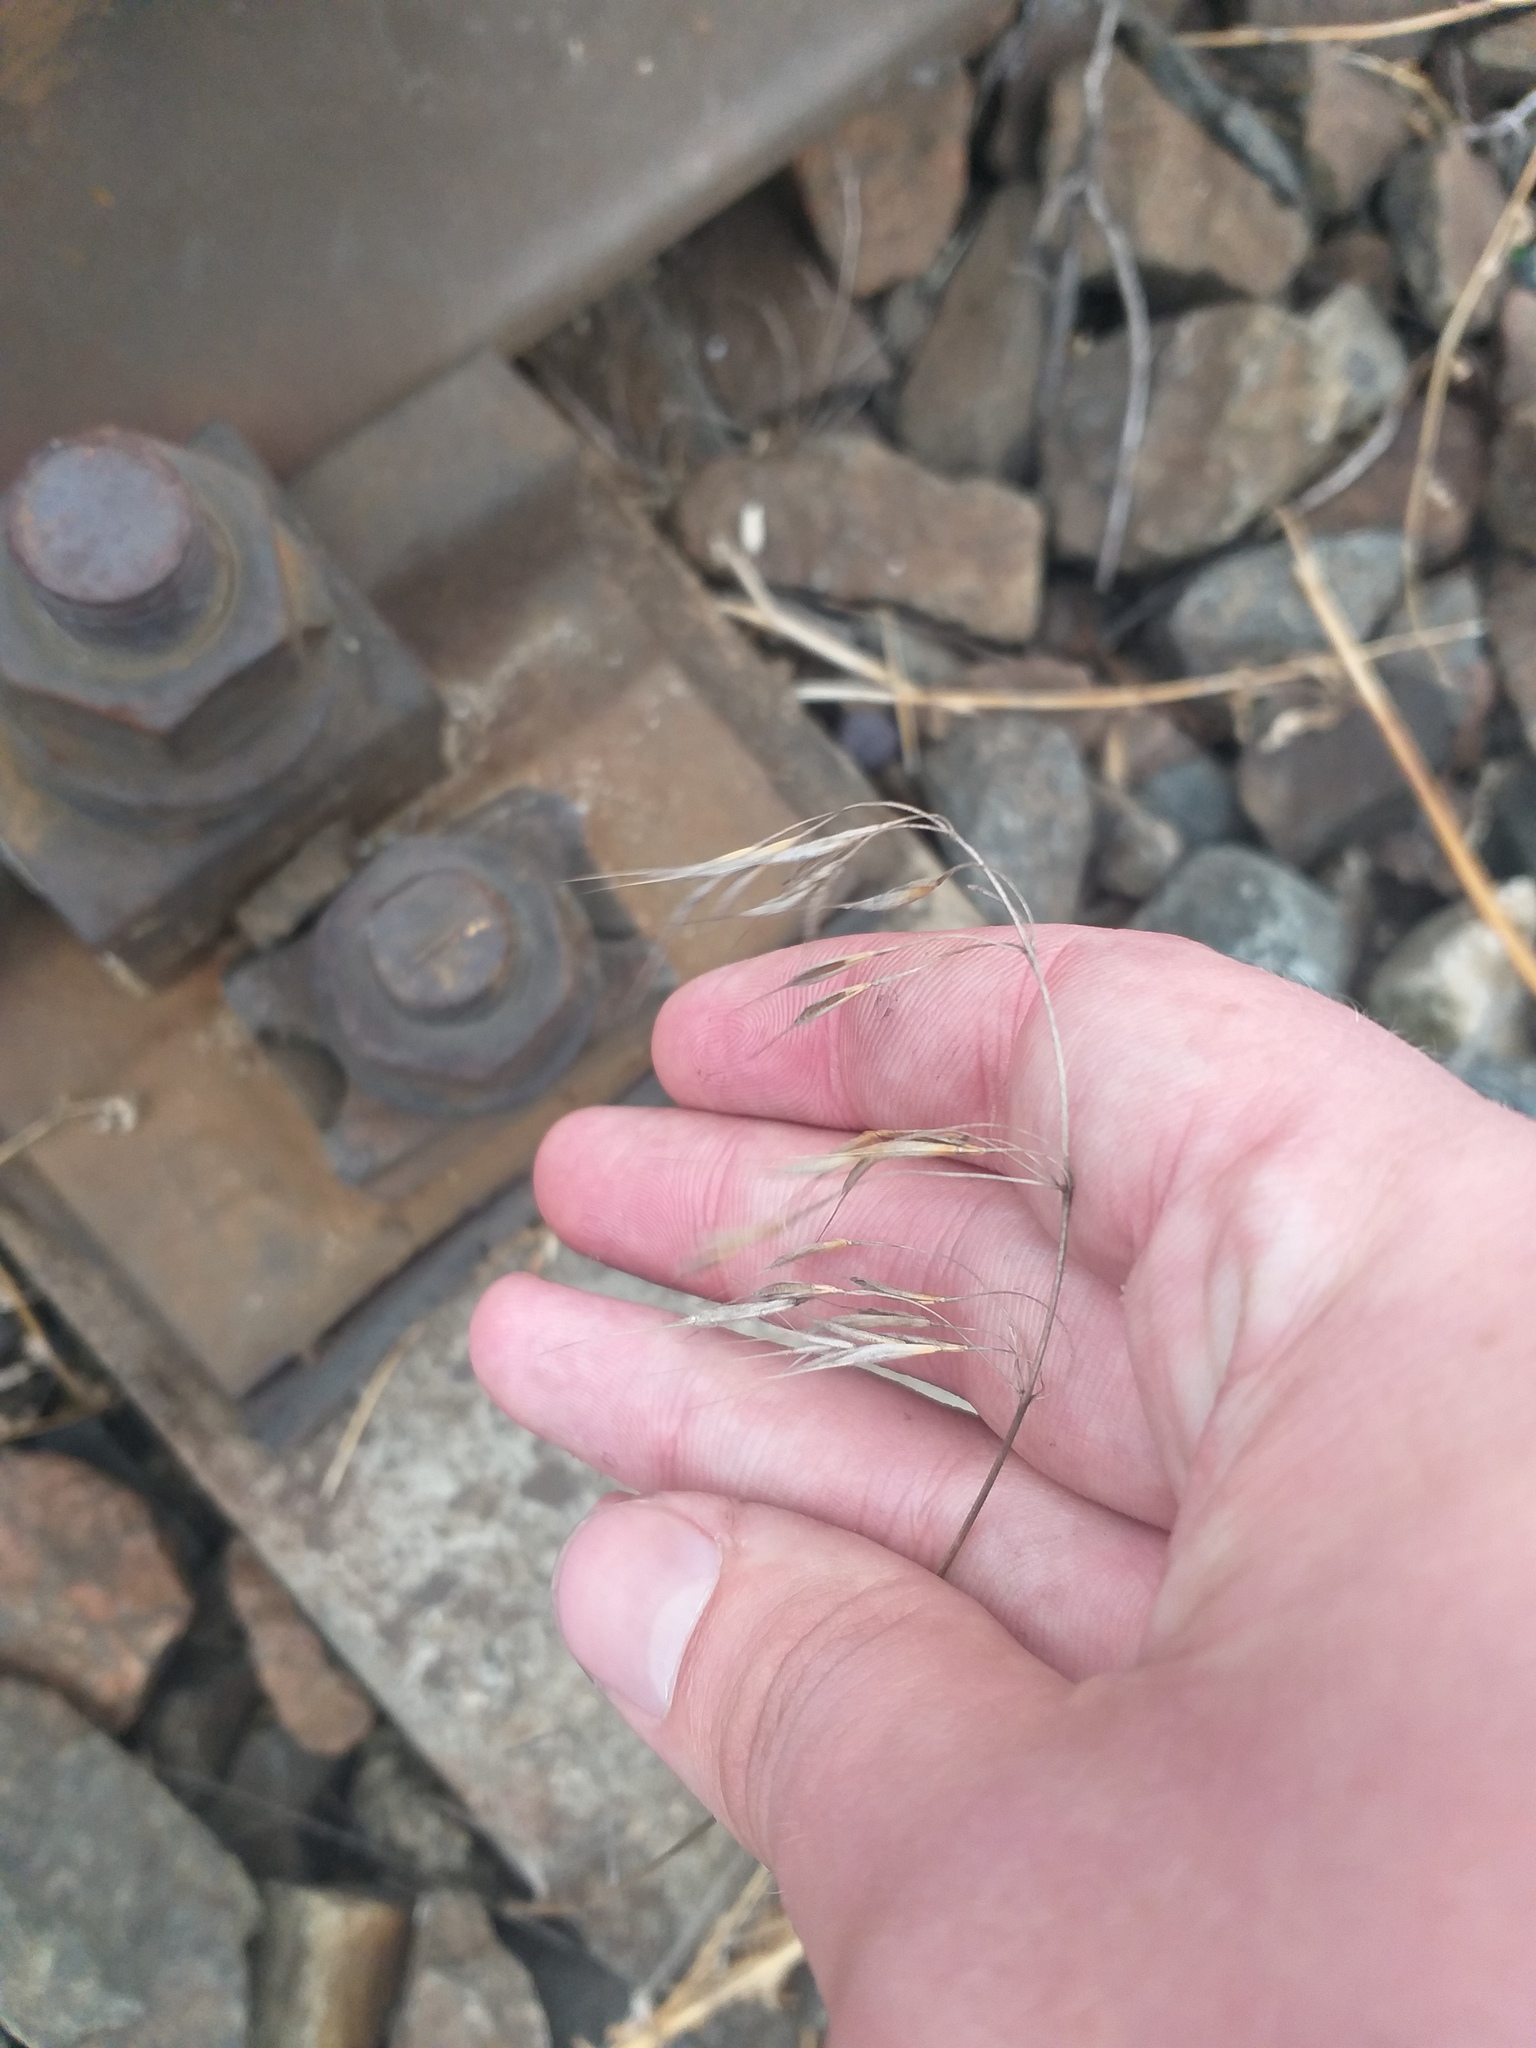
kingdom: Plantae
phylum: Tracheophyta
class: Liliopsida
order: Poales
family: Poaceae
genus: Bromus
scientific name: Bromus tectorum
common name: Cheatgrass
